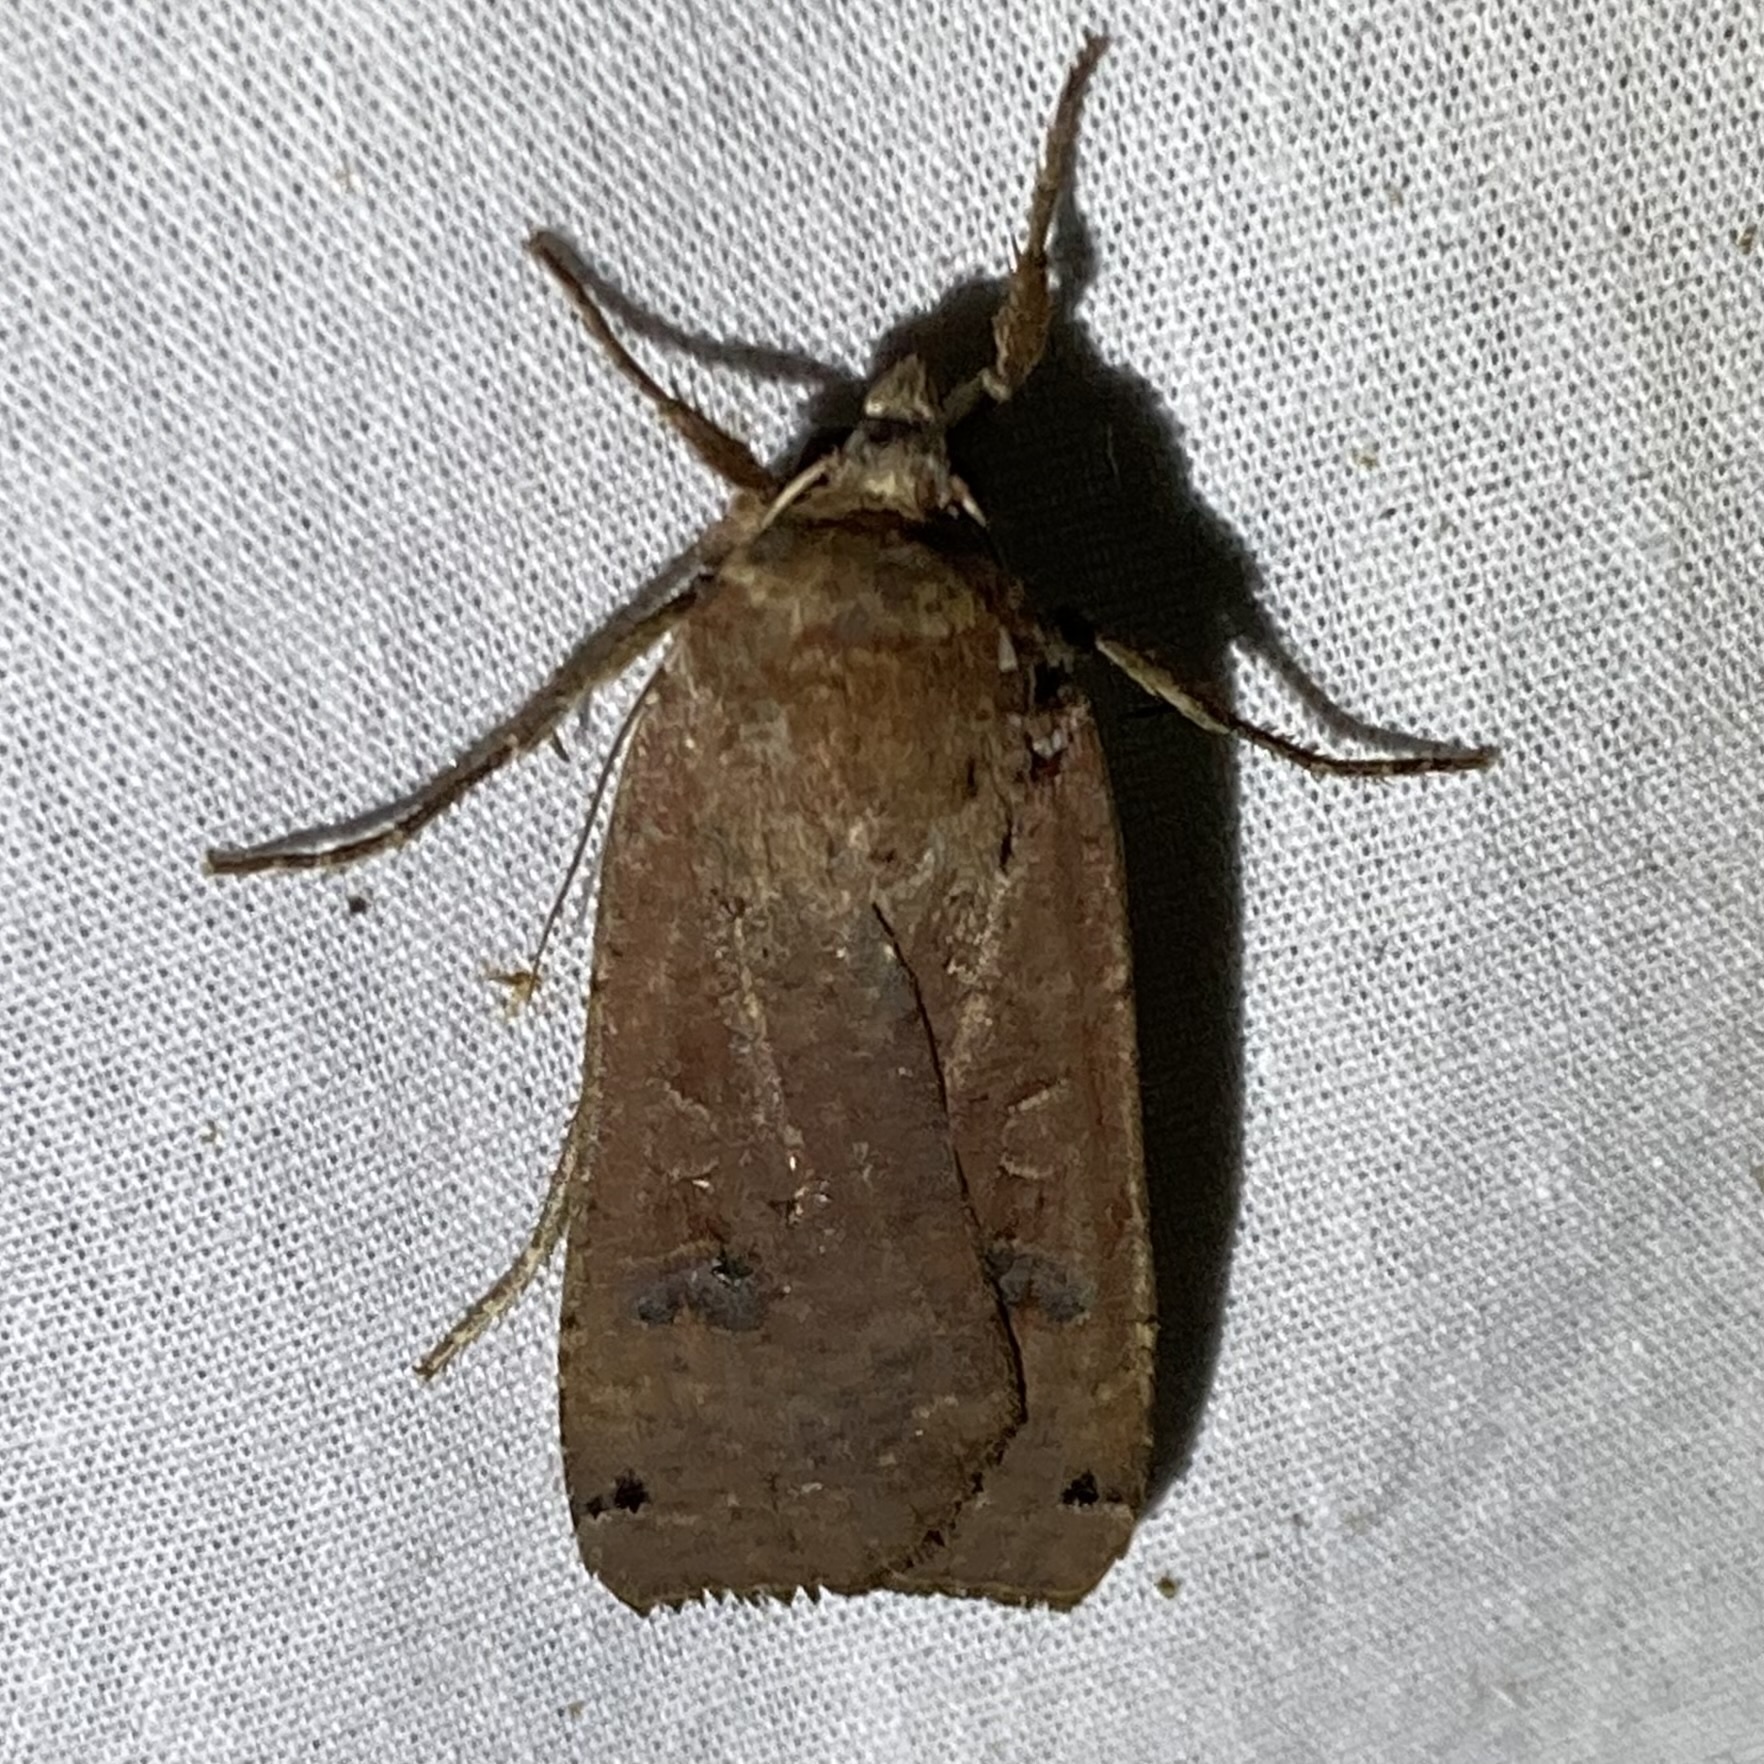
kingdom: Animalia
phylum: Arthropoda
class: Insecta
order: Lepidoptera
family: Noctuidae
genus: Noctua
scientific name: Noctua pronuba
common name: Large yellow underwing
